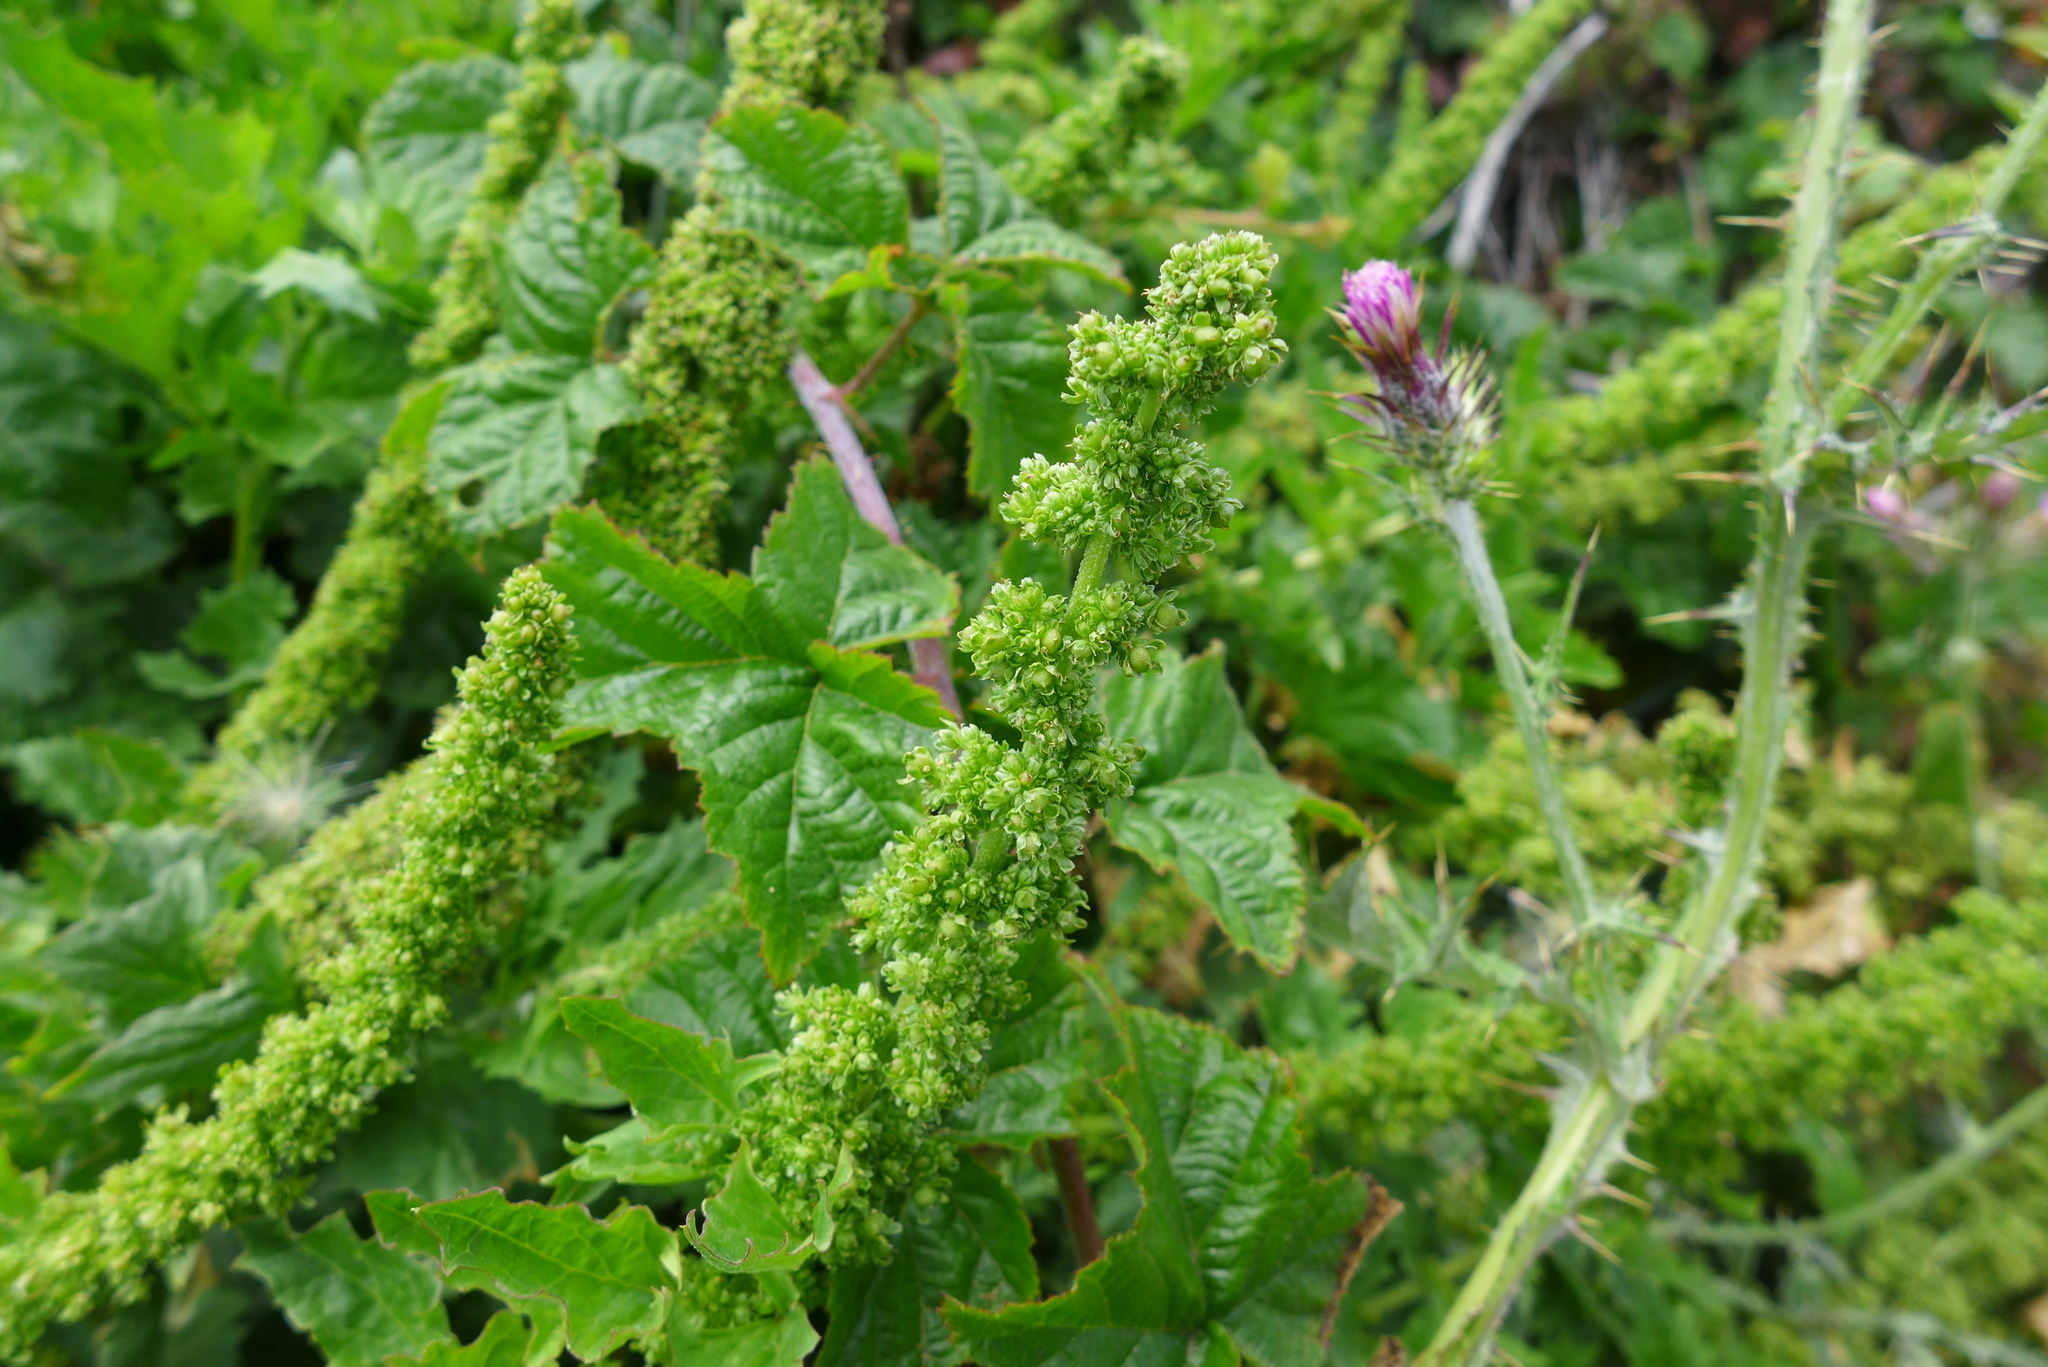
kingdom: Plantae
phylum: Tracheophyta
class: Magnoliopsida
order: Caryophyllales
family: Amaranthaceae
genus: Blitum
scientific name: Blitum californicum
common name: California goosefoot
